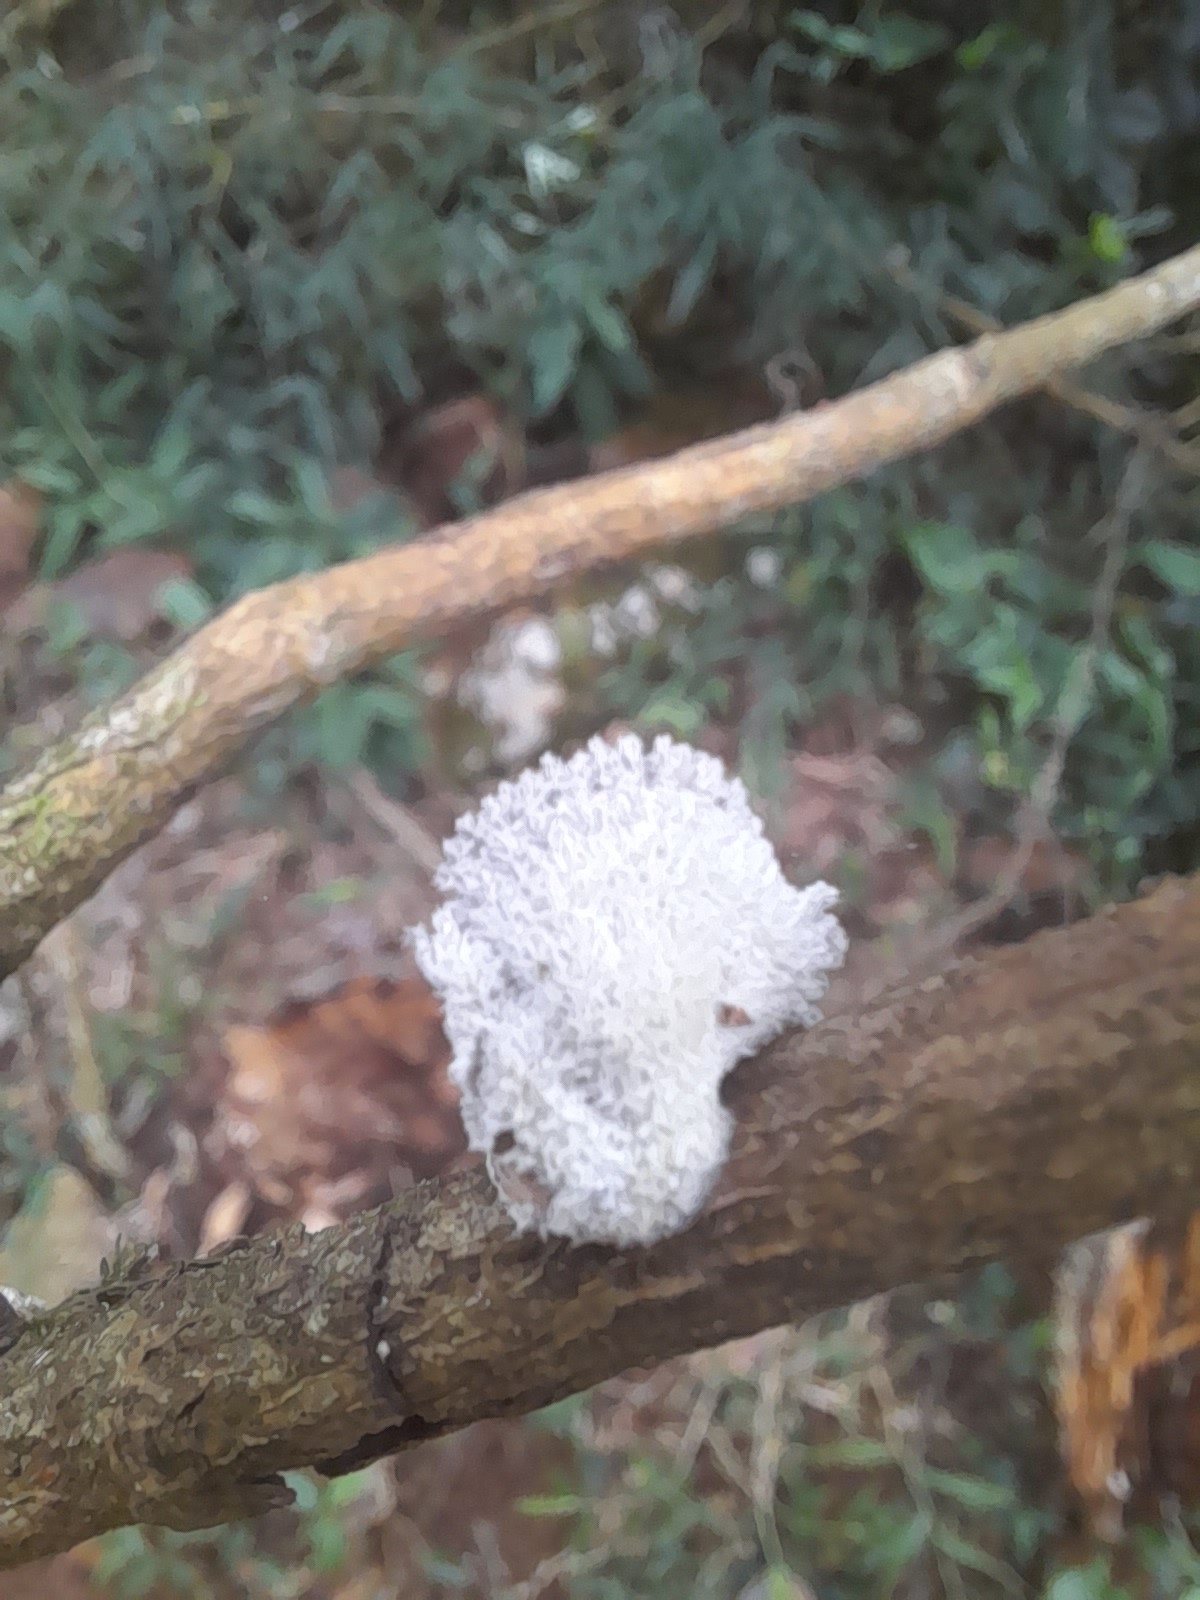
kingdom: Fungi
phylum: Basidiomycota
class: Agaricomycetes
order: Agaricales
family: Schizophyllaceae
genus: Schizophyllum
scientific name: Schizophyllum commune
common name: Common porecrust
